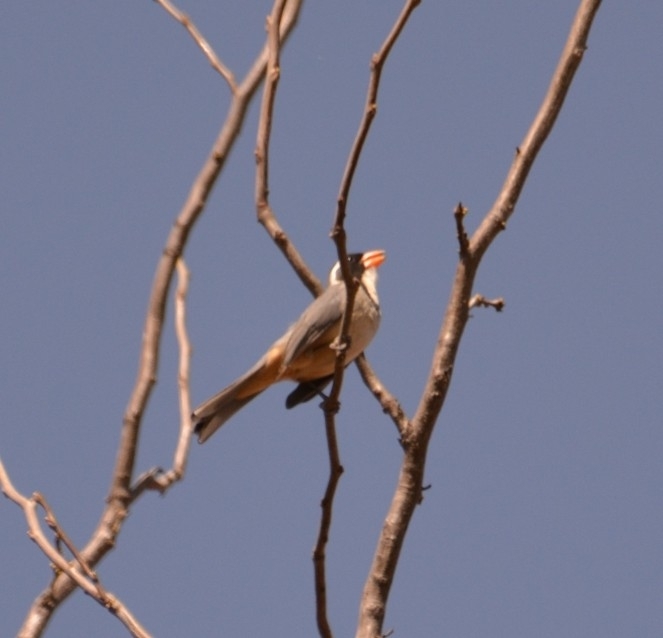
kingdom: Animalia
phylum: Chordata
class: Aves
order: Passeriformes
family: Thraupidae
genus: Saltator
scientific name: Saltator aurantiirostris
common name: Golden-billed saltator
